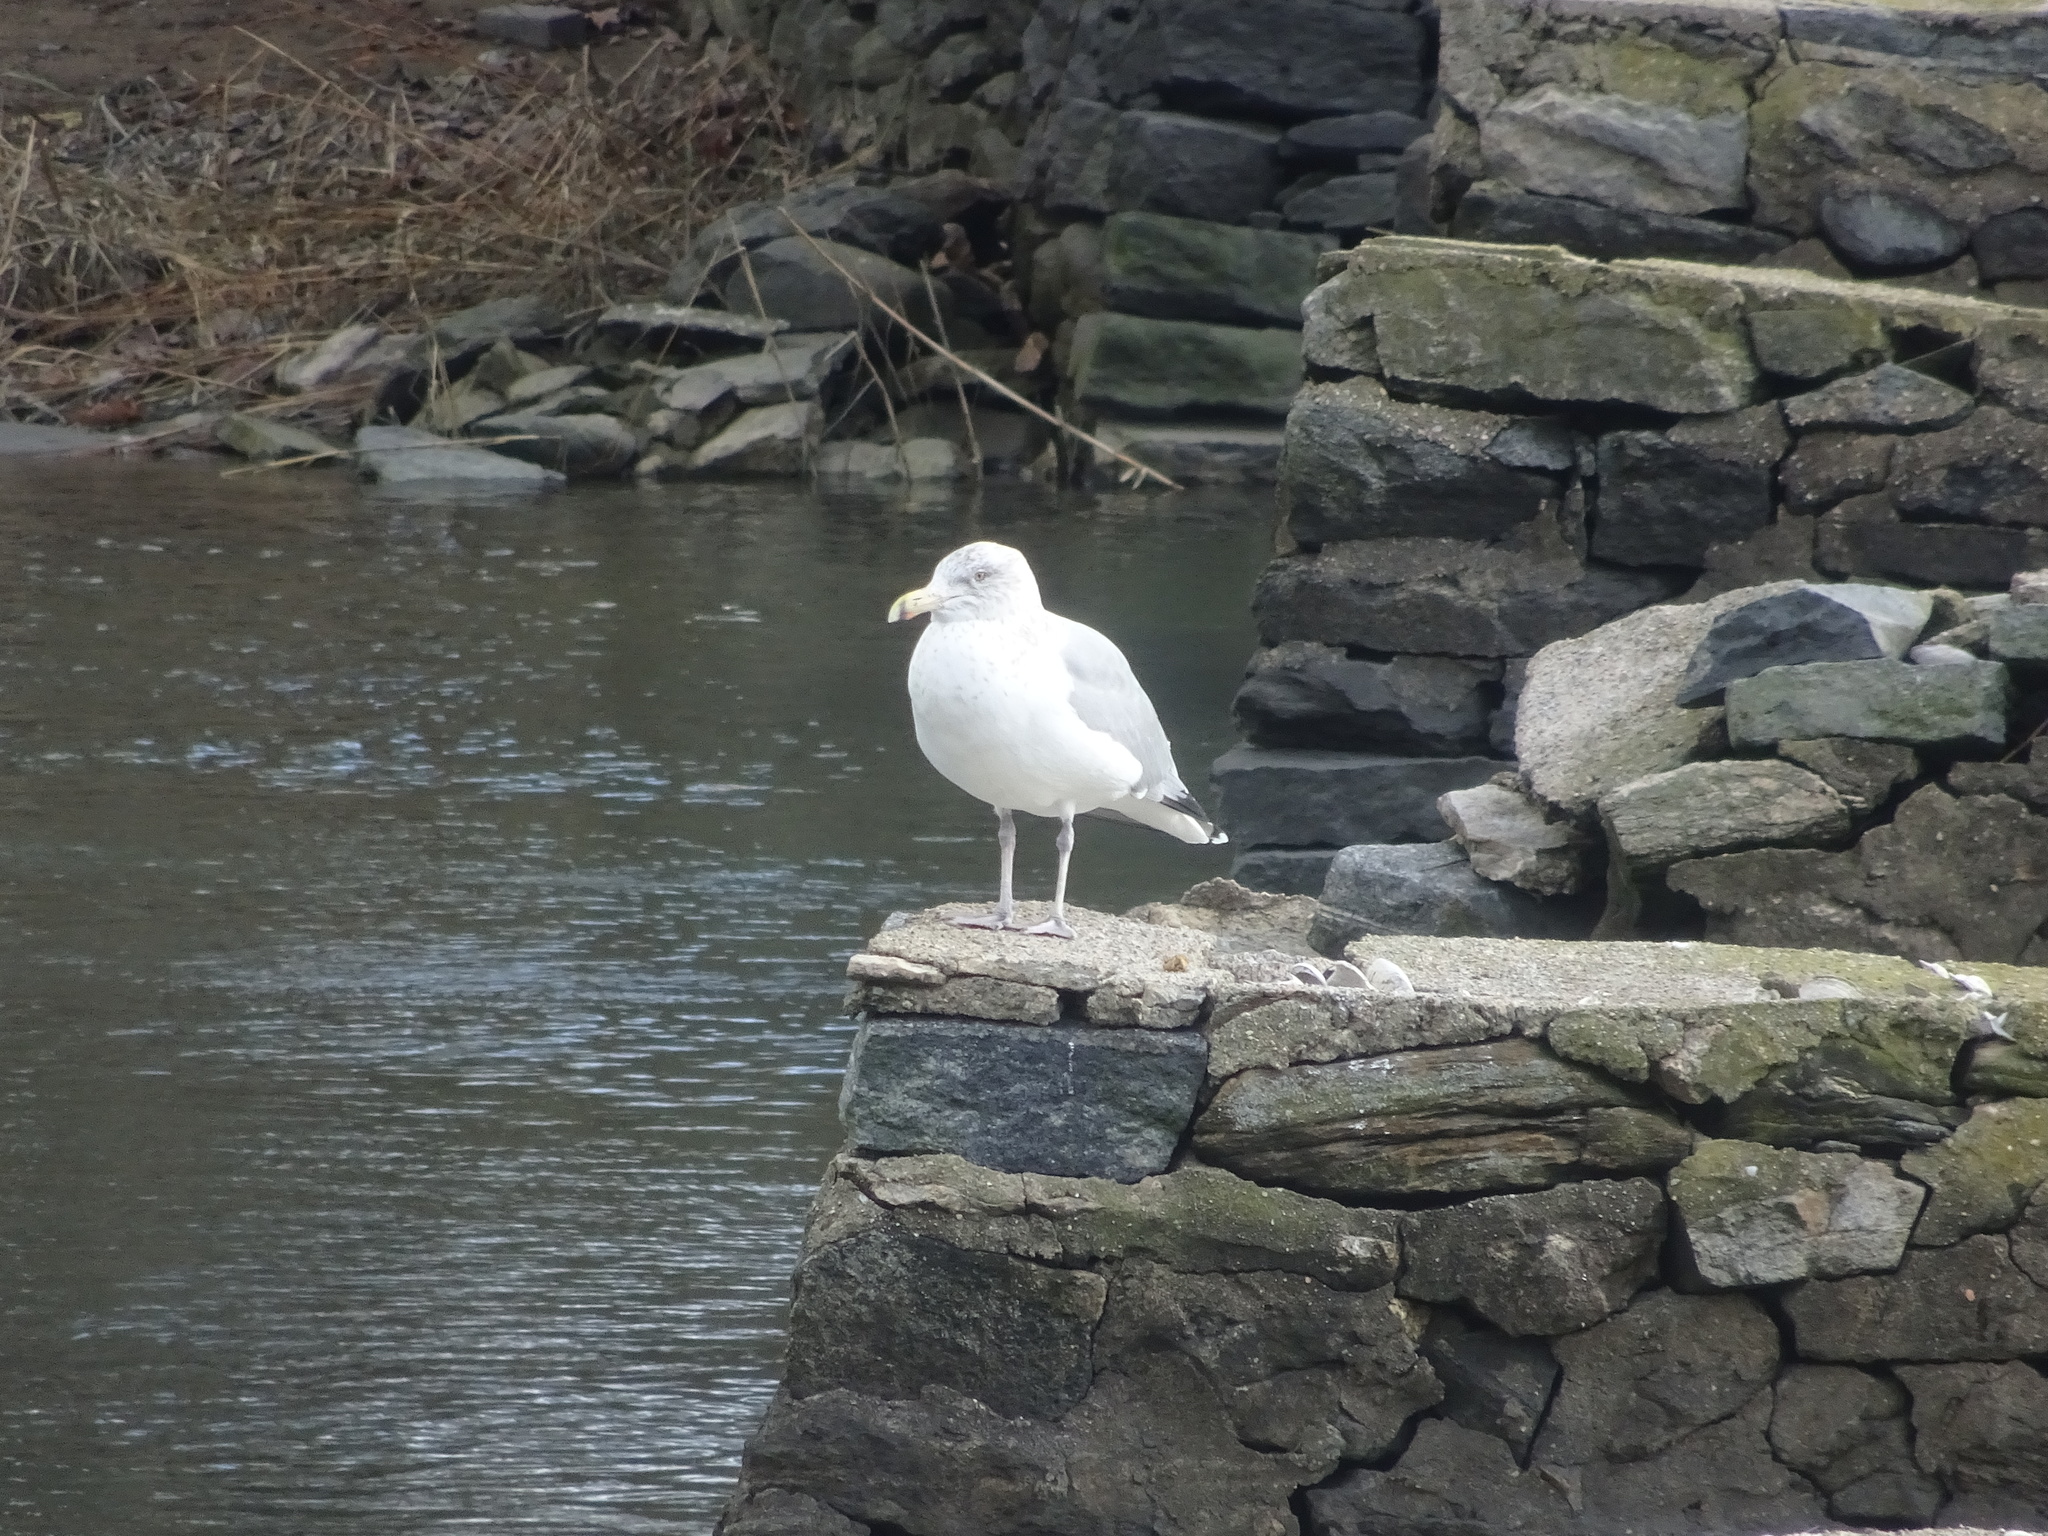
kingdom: Animalia
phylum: Chordata
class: Aves
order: Charadriiformes
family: Laridae
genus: Larus
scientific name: Larus argentatus
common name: Herring gull
